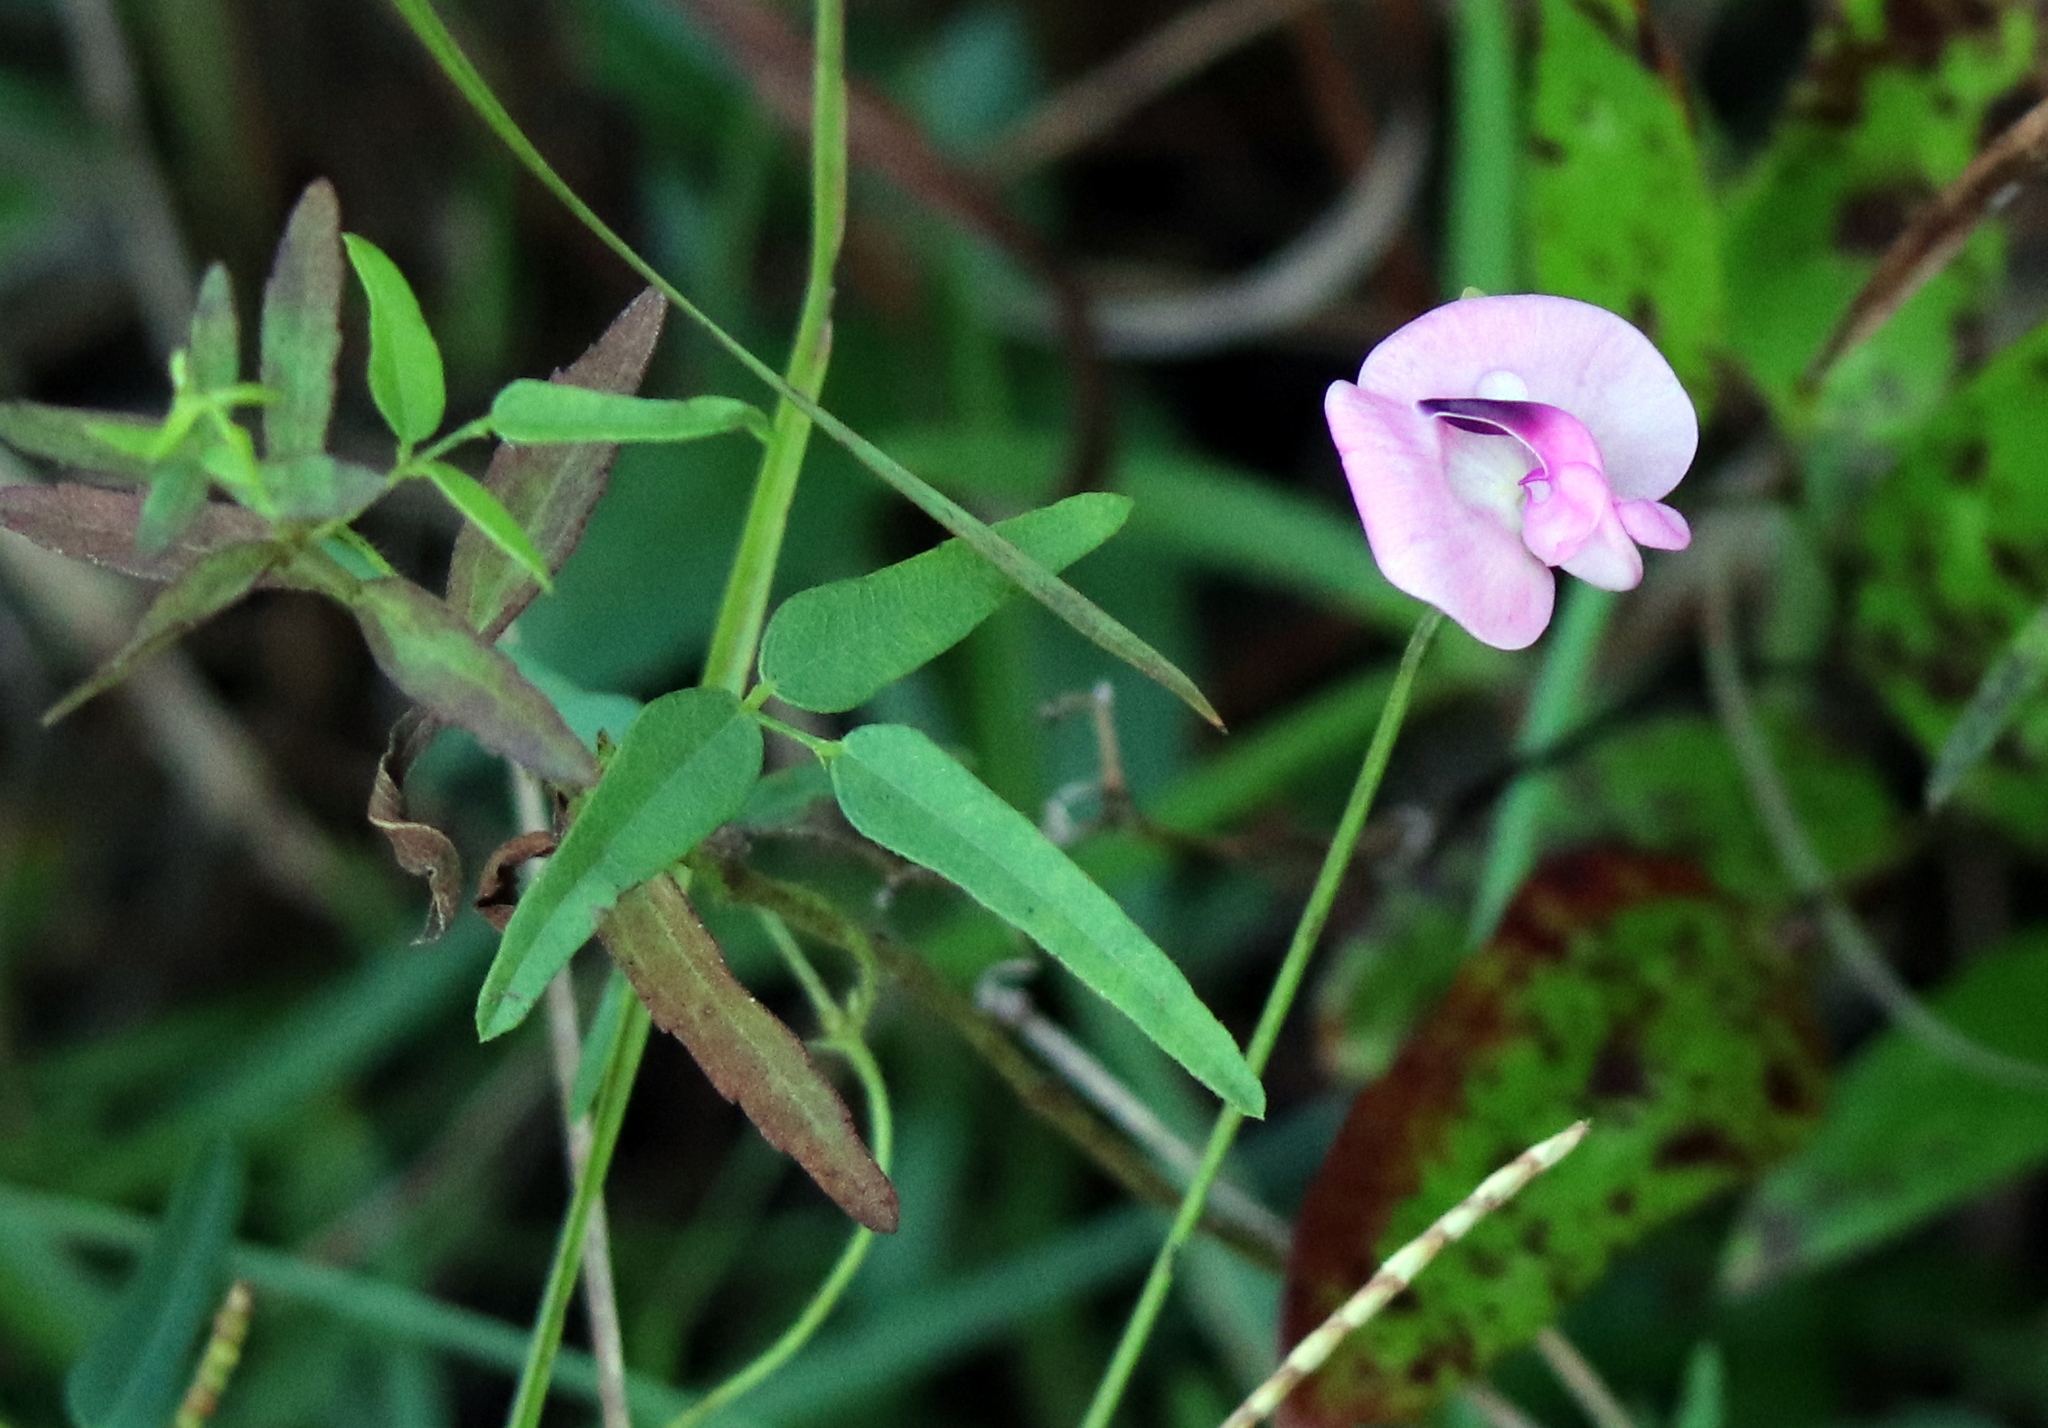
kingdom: Plantae
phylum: Tracheophyta
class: Magnoliopsida
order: Fabales
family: Fabaceae
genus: Strophostyles
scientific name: Strophostyles umbellata
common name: Perennial wild bean
